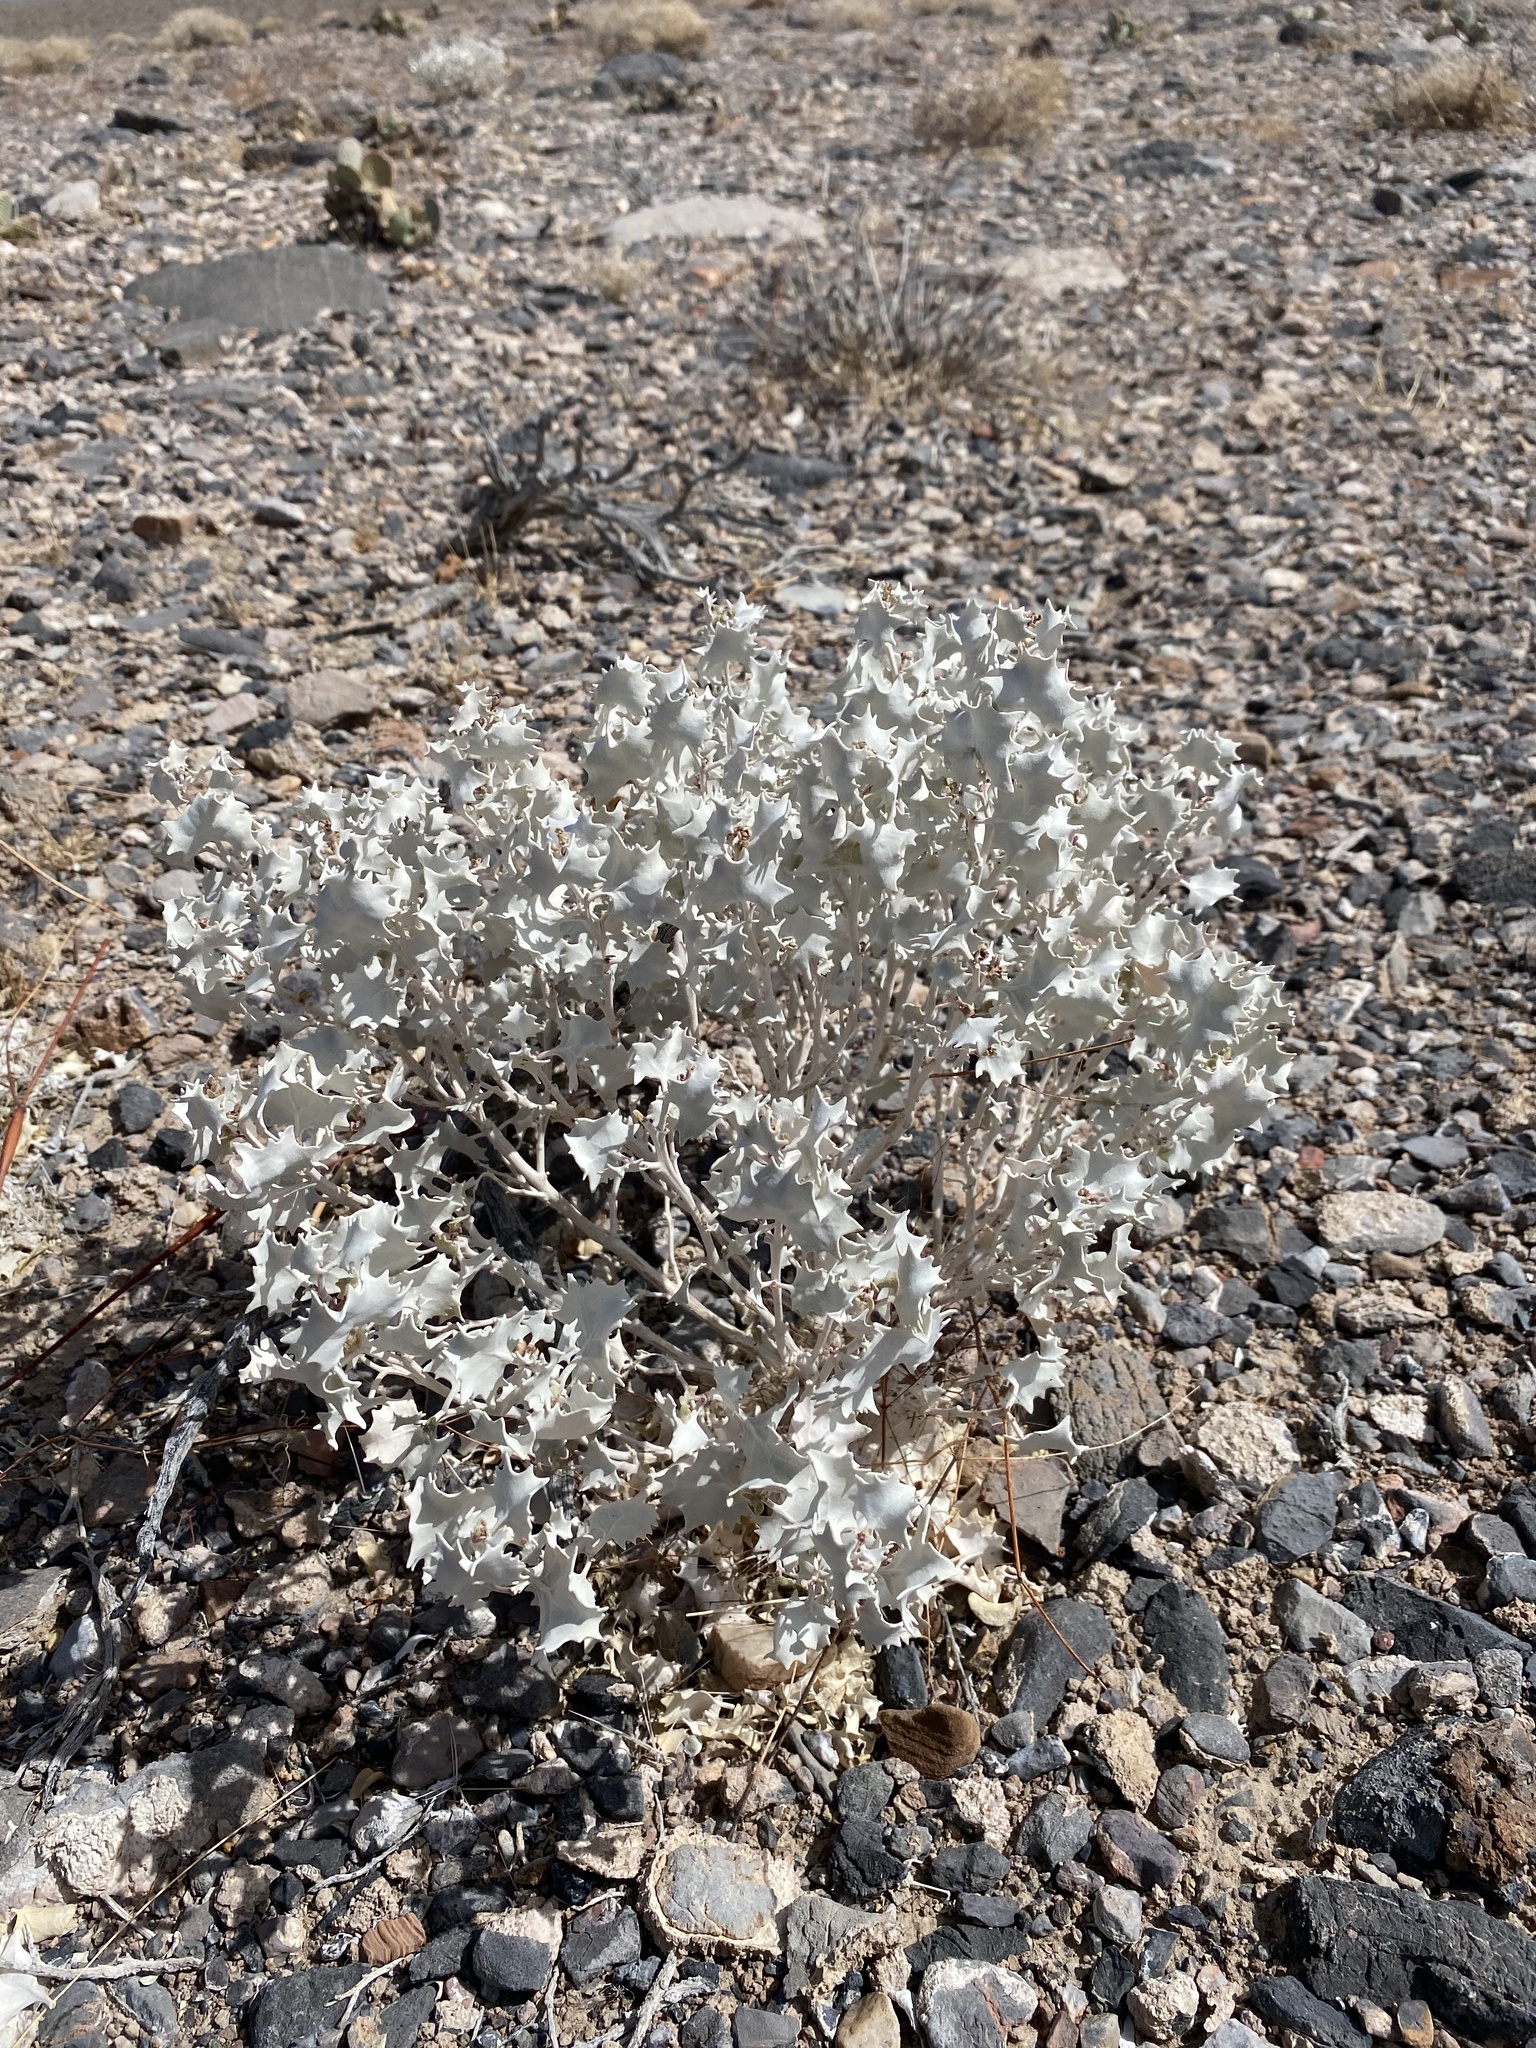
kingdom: Plantae
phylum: Tracheophyta
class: Magnoliopsida
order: Caryophyllales
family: Amaranthaceae
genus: Atriplex
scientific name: Atriplex hymenelytra
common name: Desert-holly
